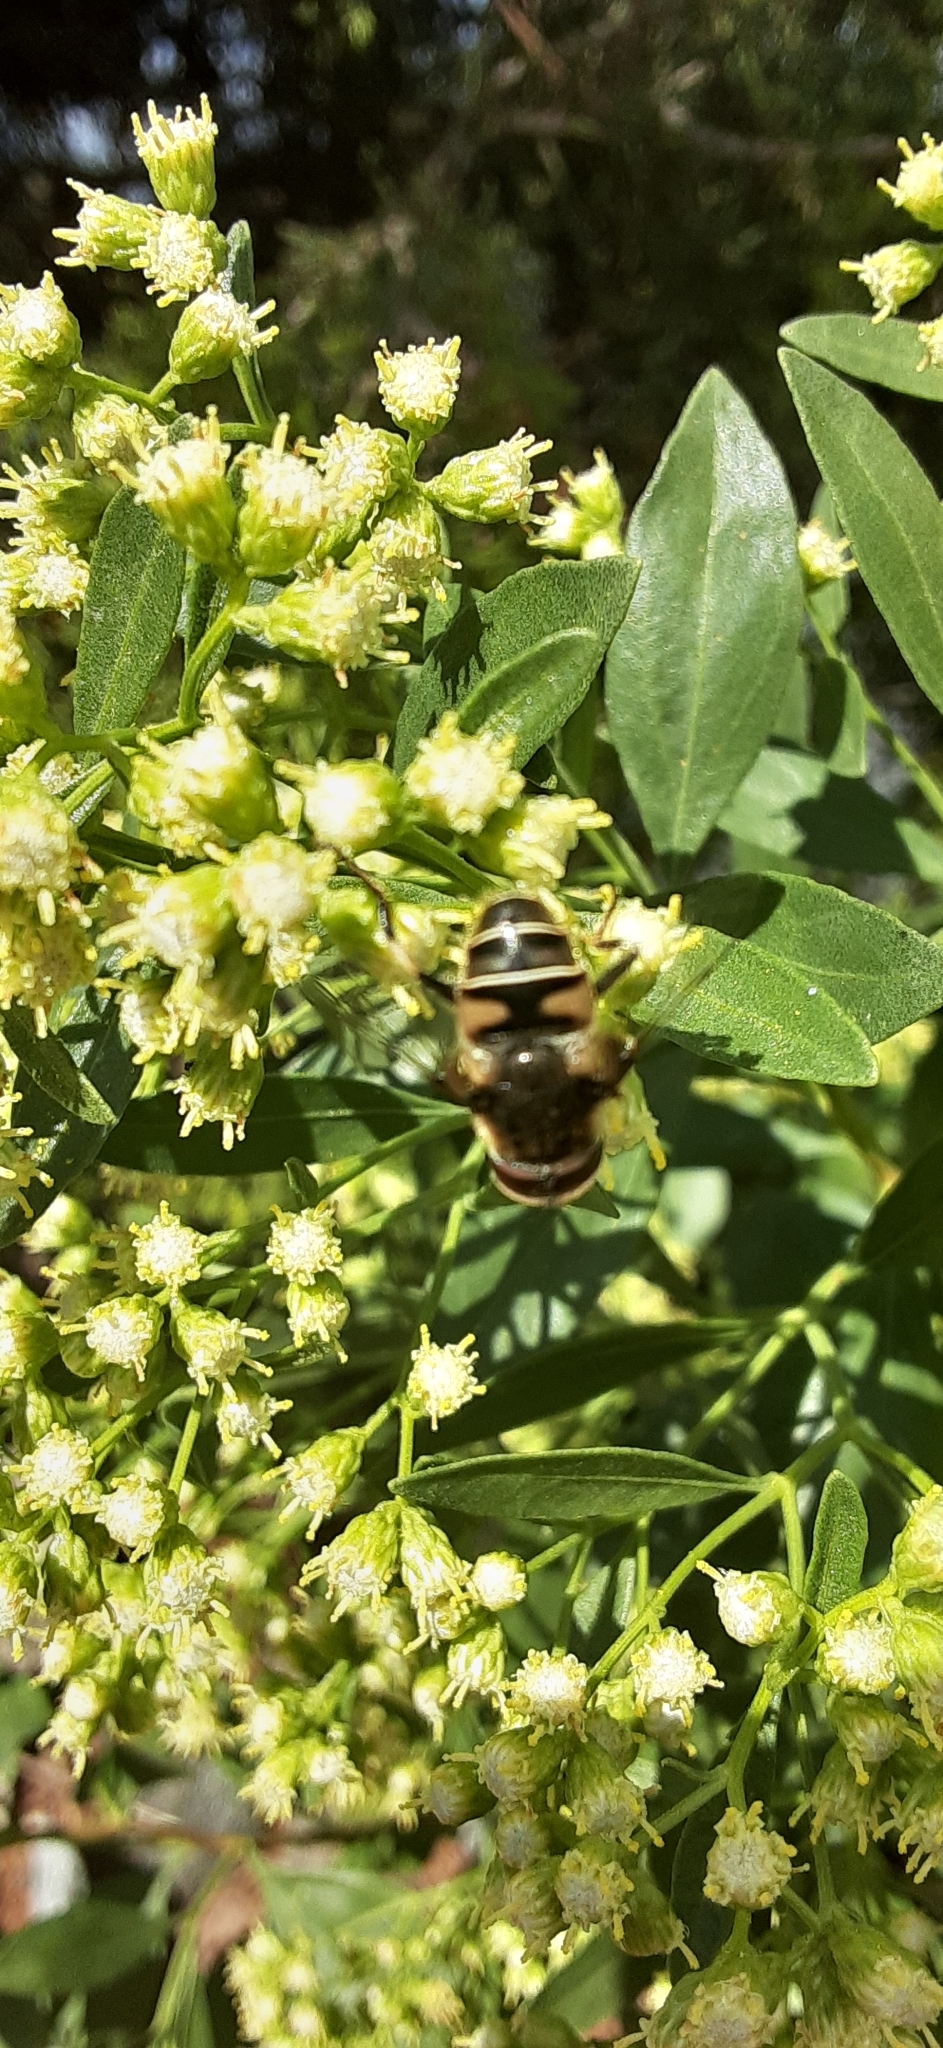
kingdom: Animalia
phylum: Arthropoda
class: Insecta
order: Diptera
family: Syrphidae
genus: Eristalis
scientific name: Eristalis dimidiata
